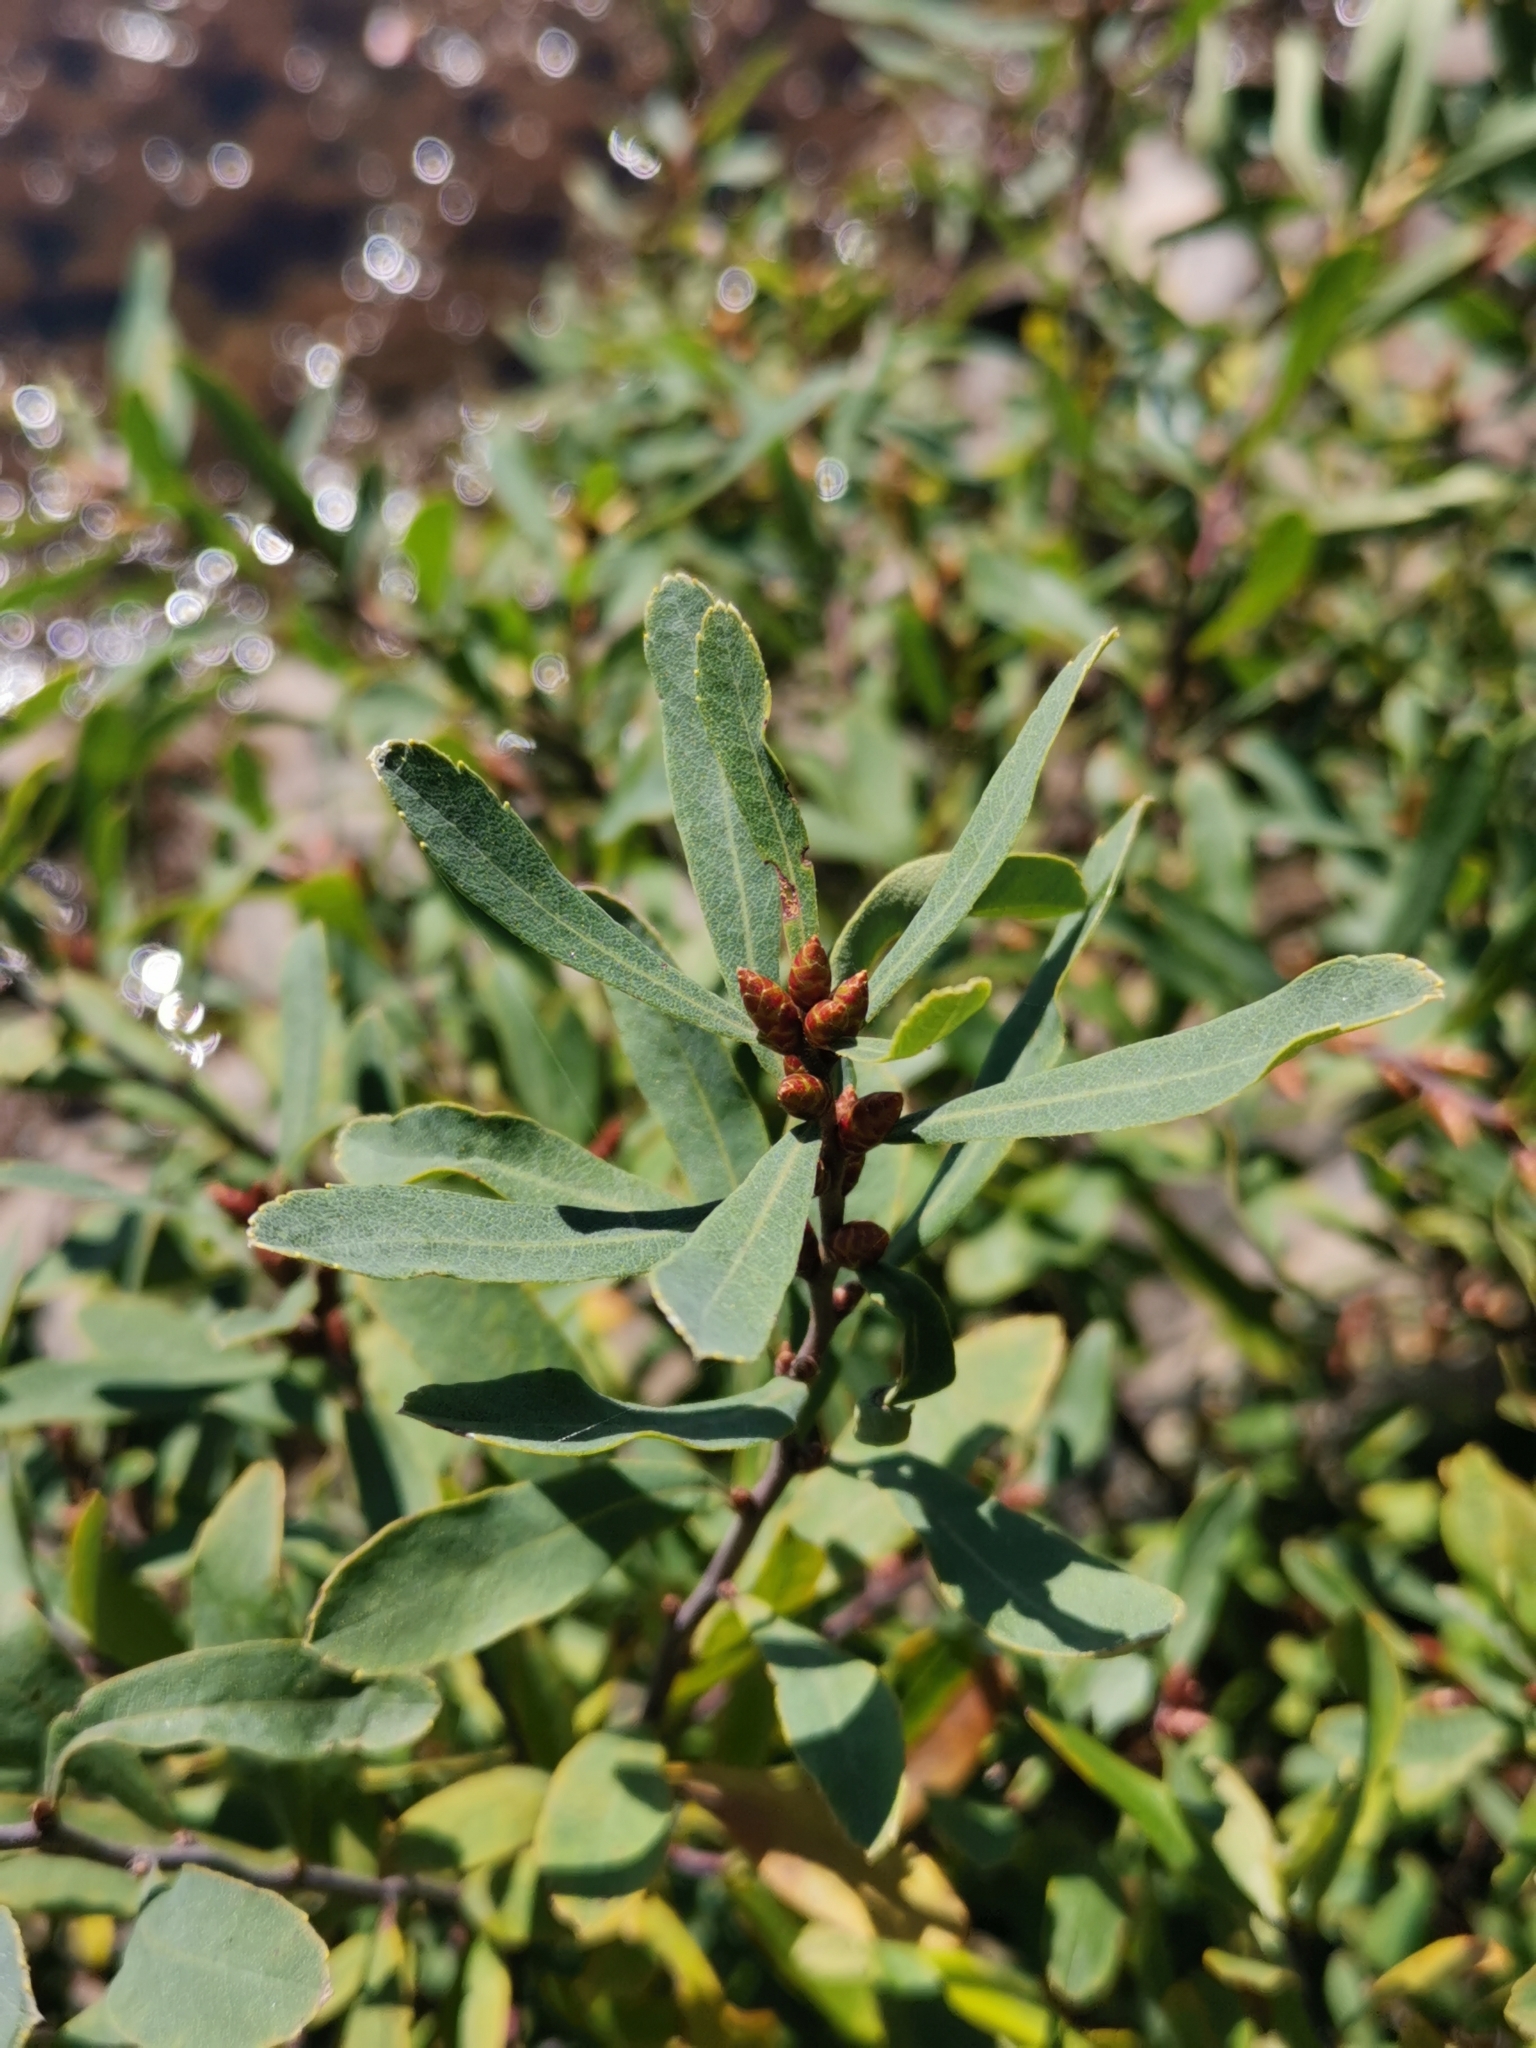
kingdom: Plantae
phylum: Tracheophyta
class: Magnoliopsida
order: Fagales
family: Myricaceae
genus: Myrica
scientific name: Myrica gale
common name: Sweet gale
